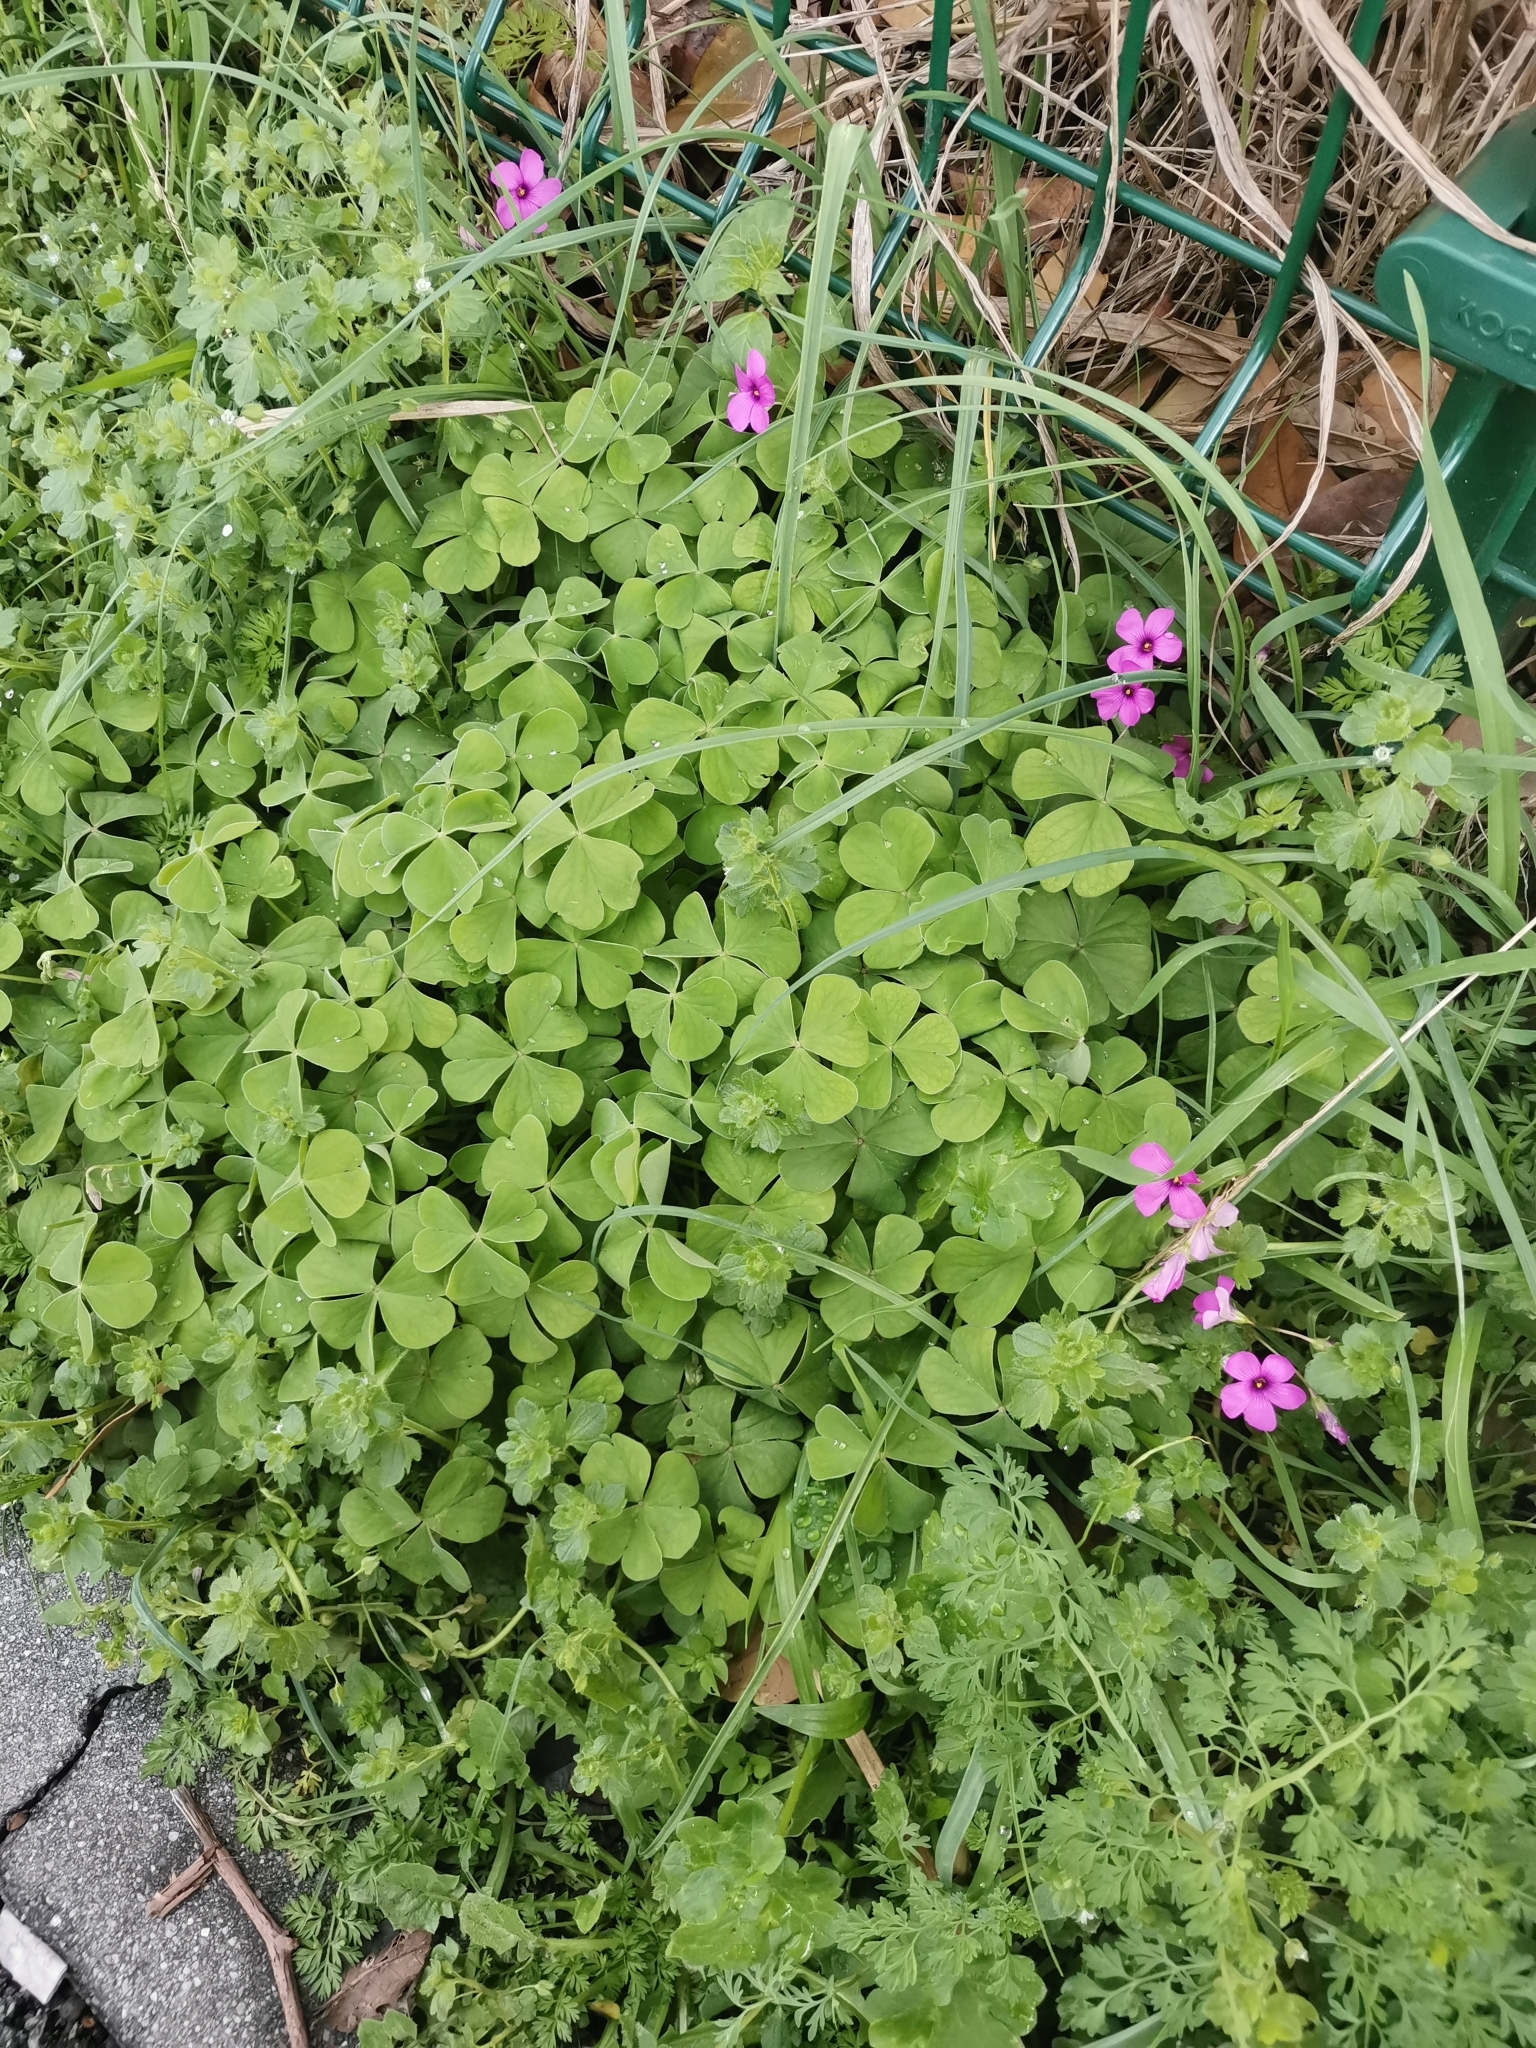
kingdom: Plantae
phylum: Tracheophyta
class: Magnoliopsida
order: Oxalidales
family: Oxalidaceae
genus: Oxalis
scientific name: Oxalis articulata
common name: Pink-sorrel
